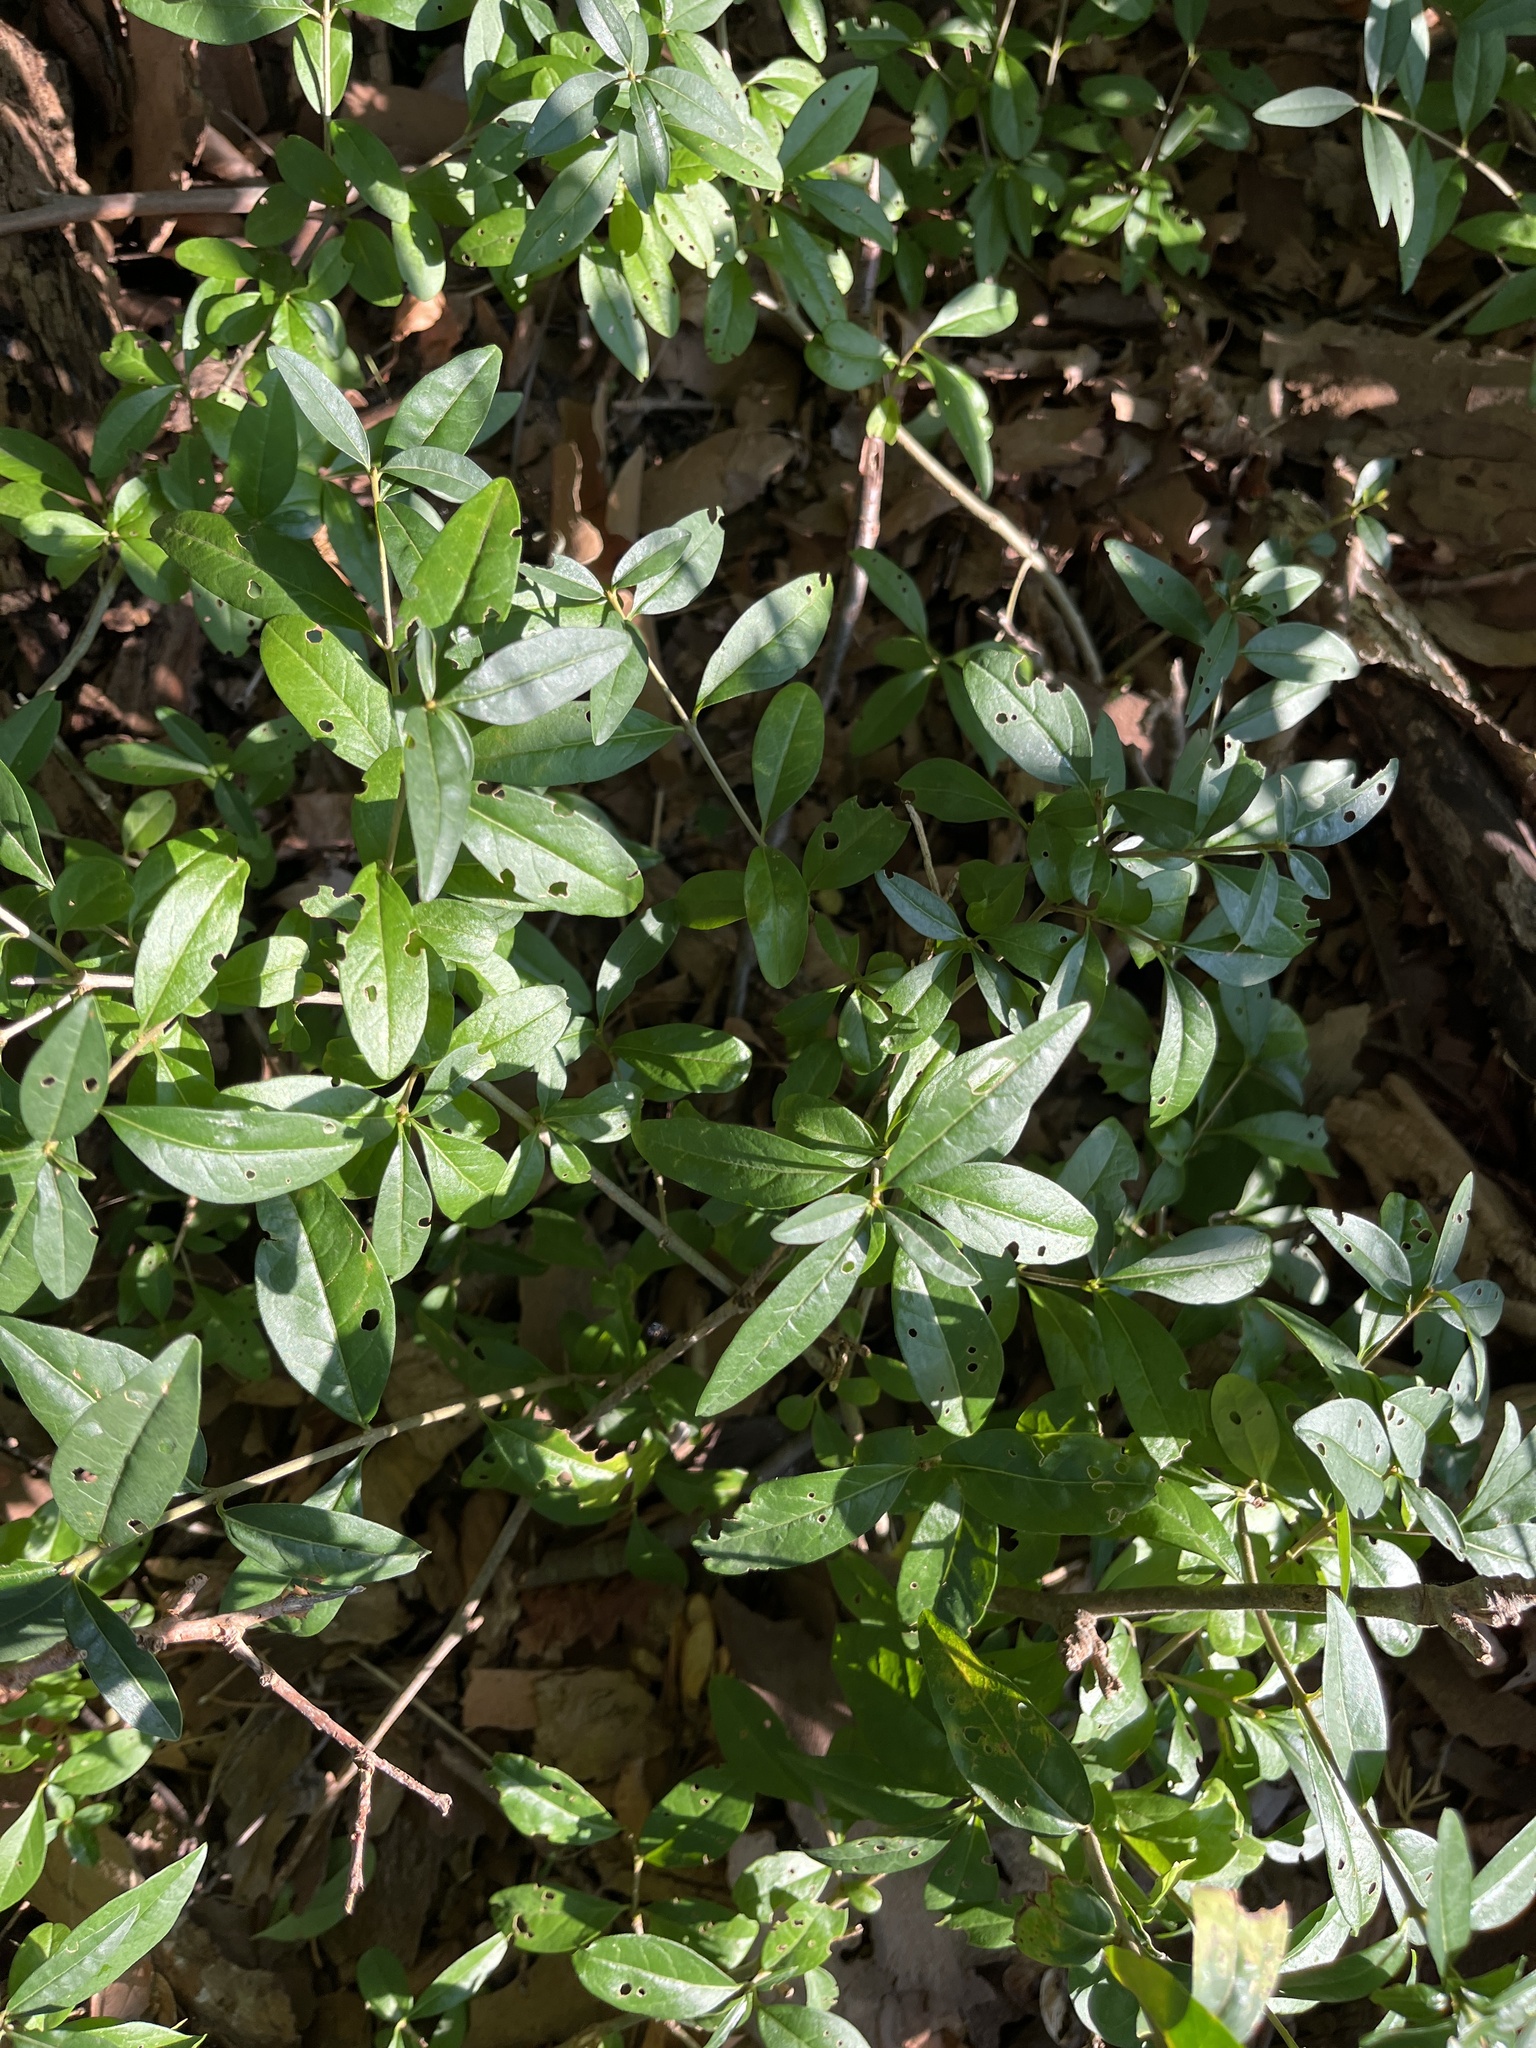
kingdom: Plantae
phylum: Tracheophyta
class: Magnoliopsida
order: Lamiales
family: Oleaceae
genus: Ligustrum
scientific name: Ligustrum vulgare
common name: Wild privet
